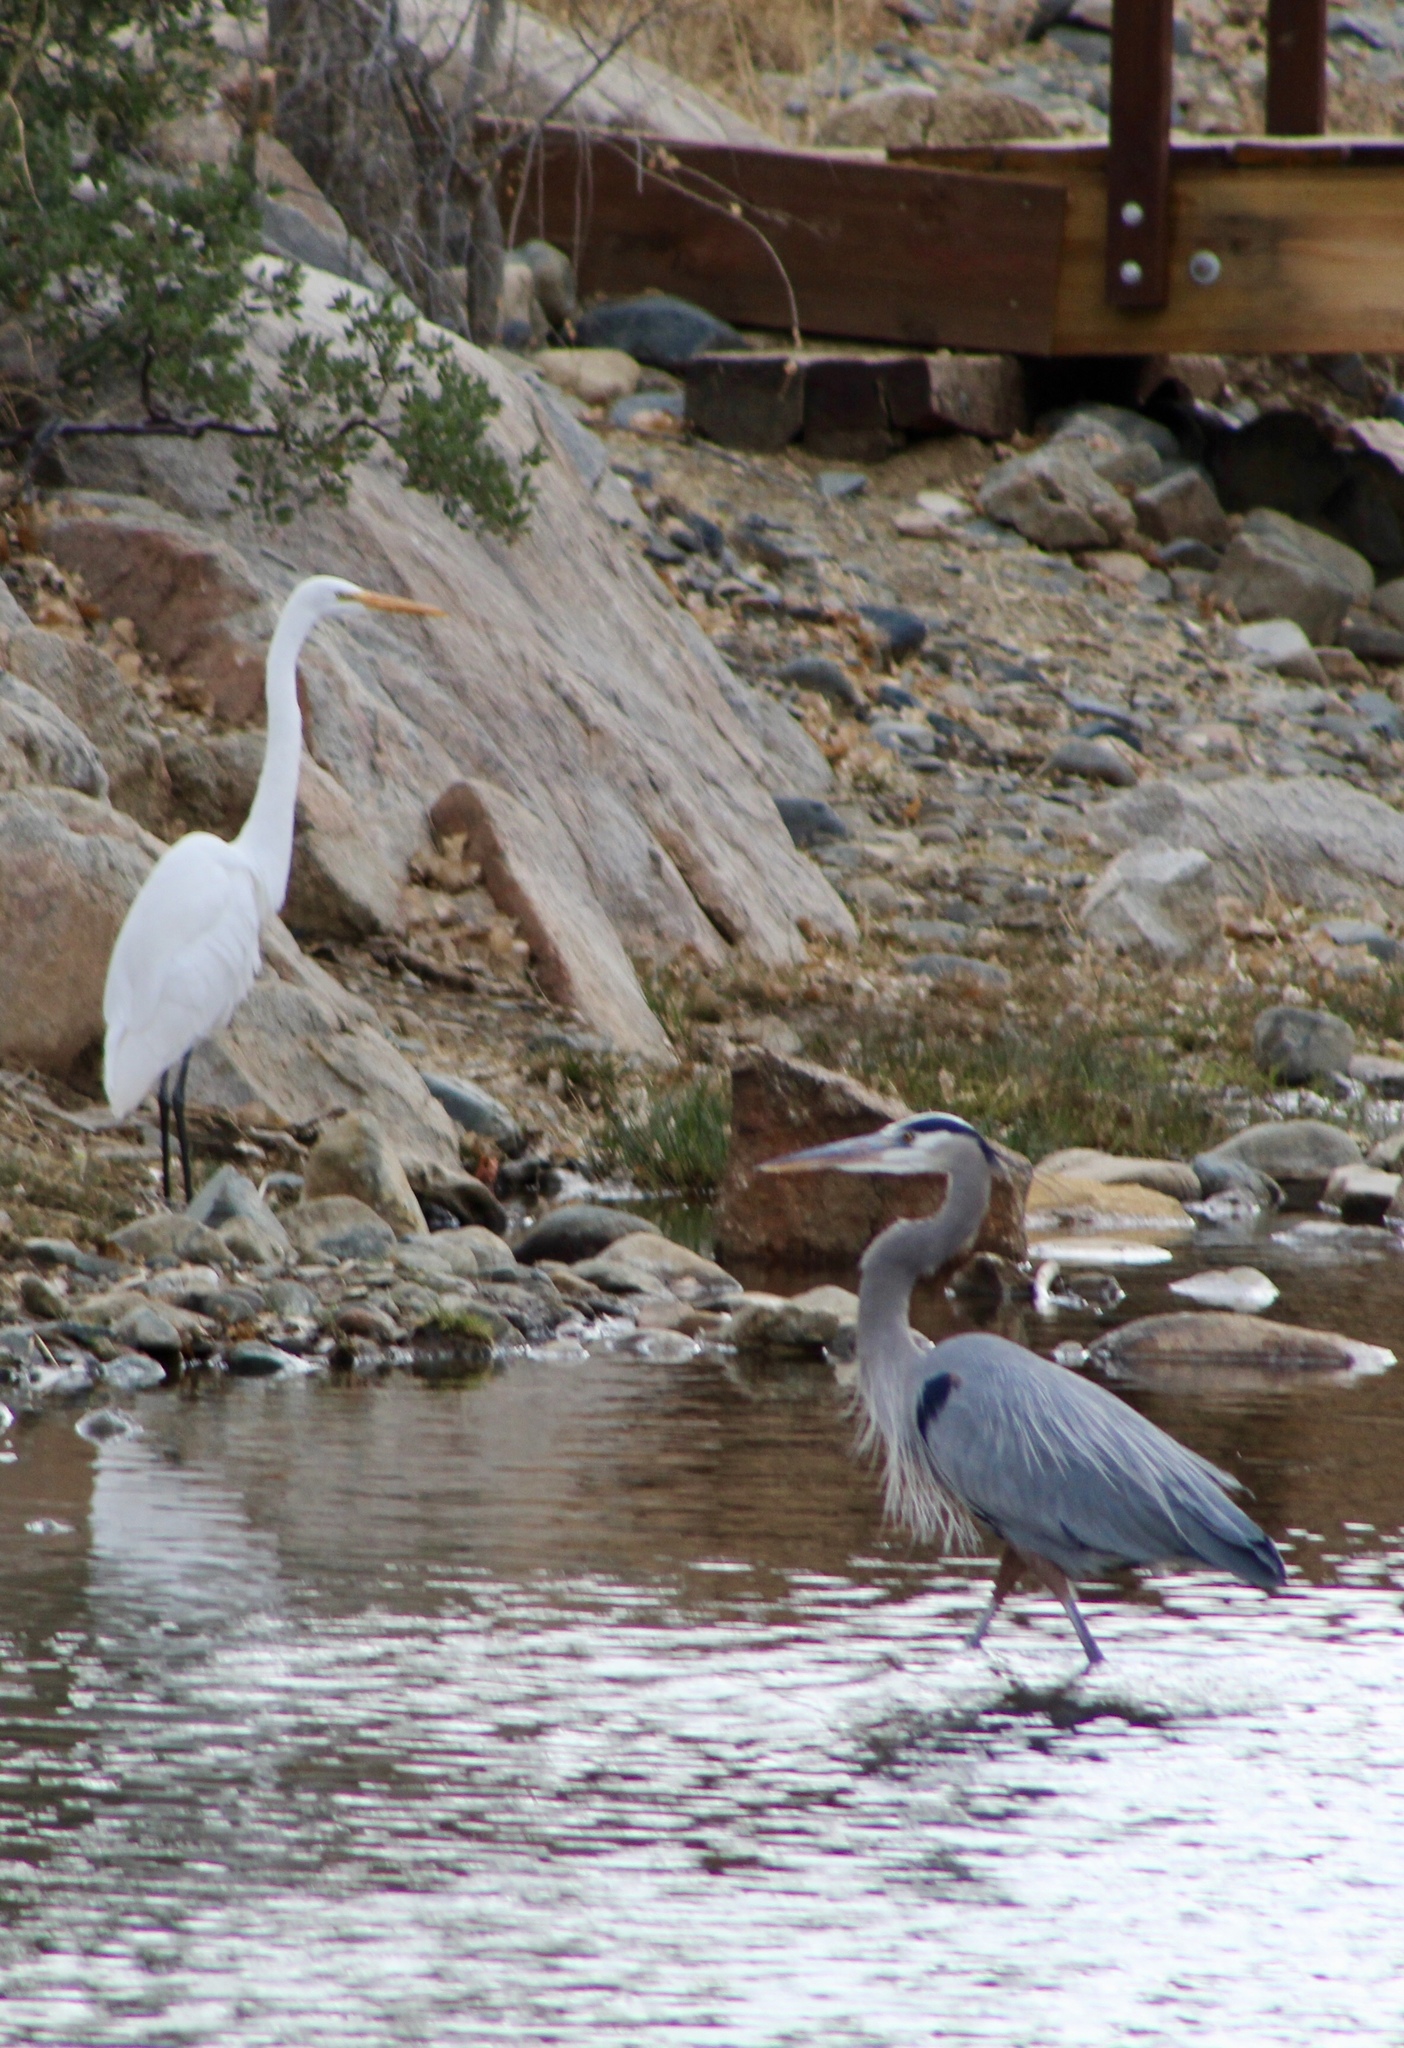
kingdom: Animalia
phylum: Chordata
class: Aves
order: Pelecaniformes
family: Ardeidae
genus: Ardea
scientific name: Ardea herodias
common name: Great blue heron
